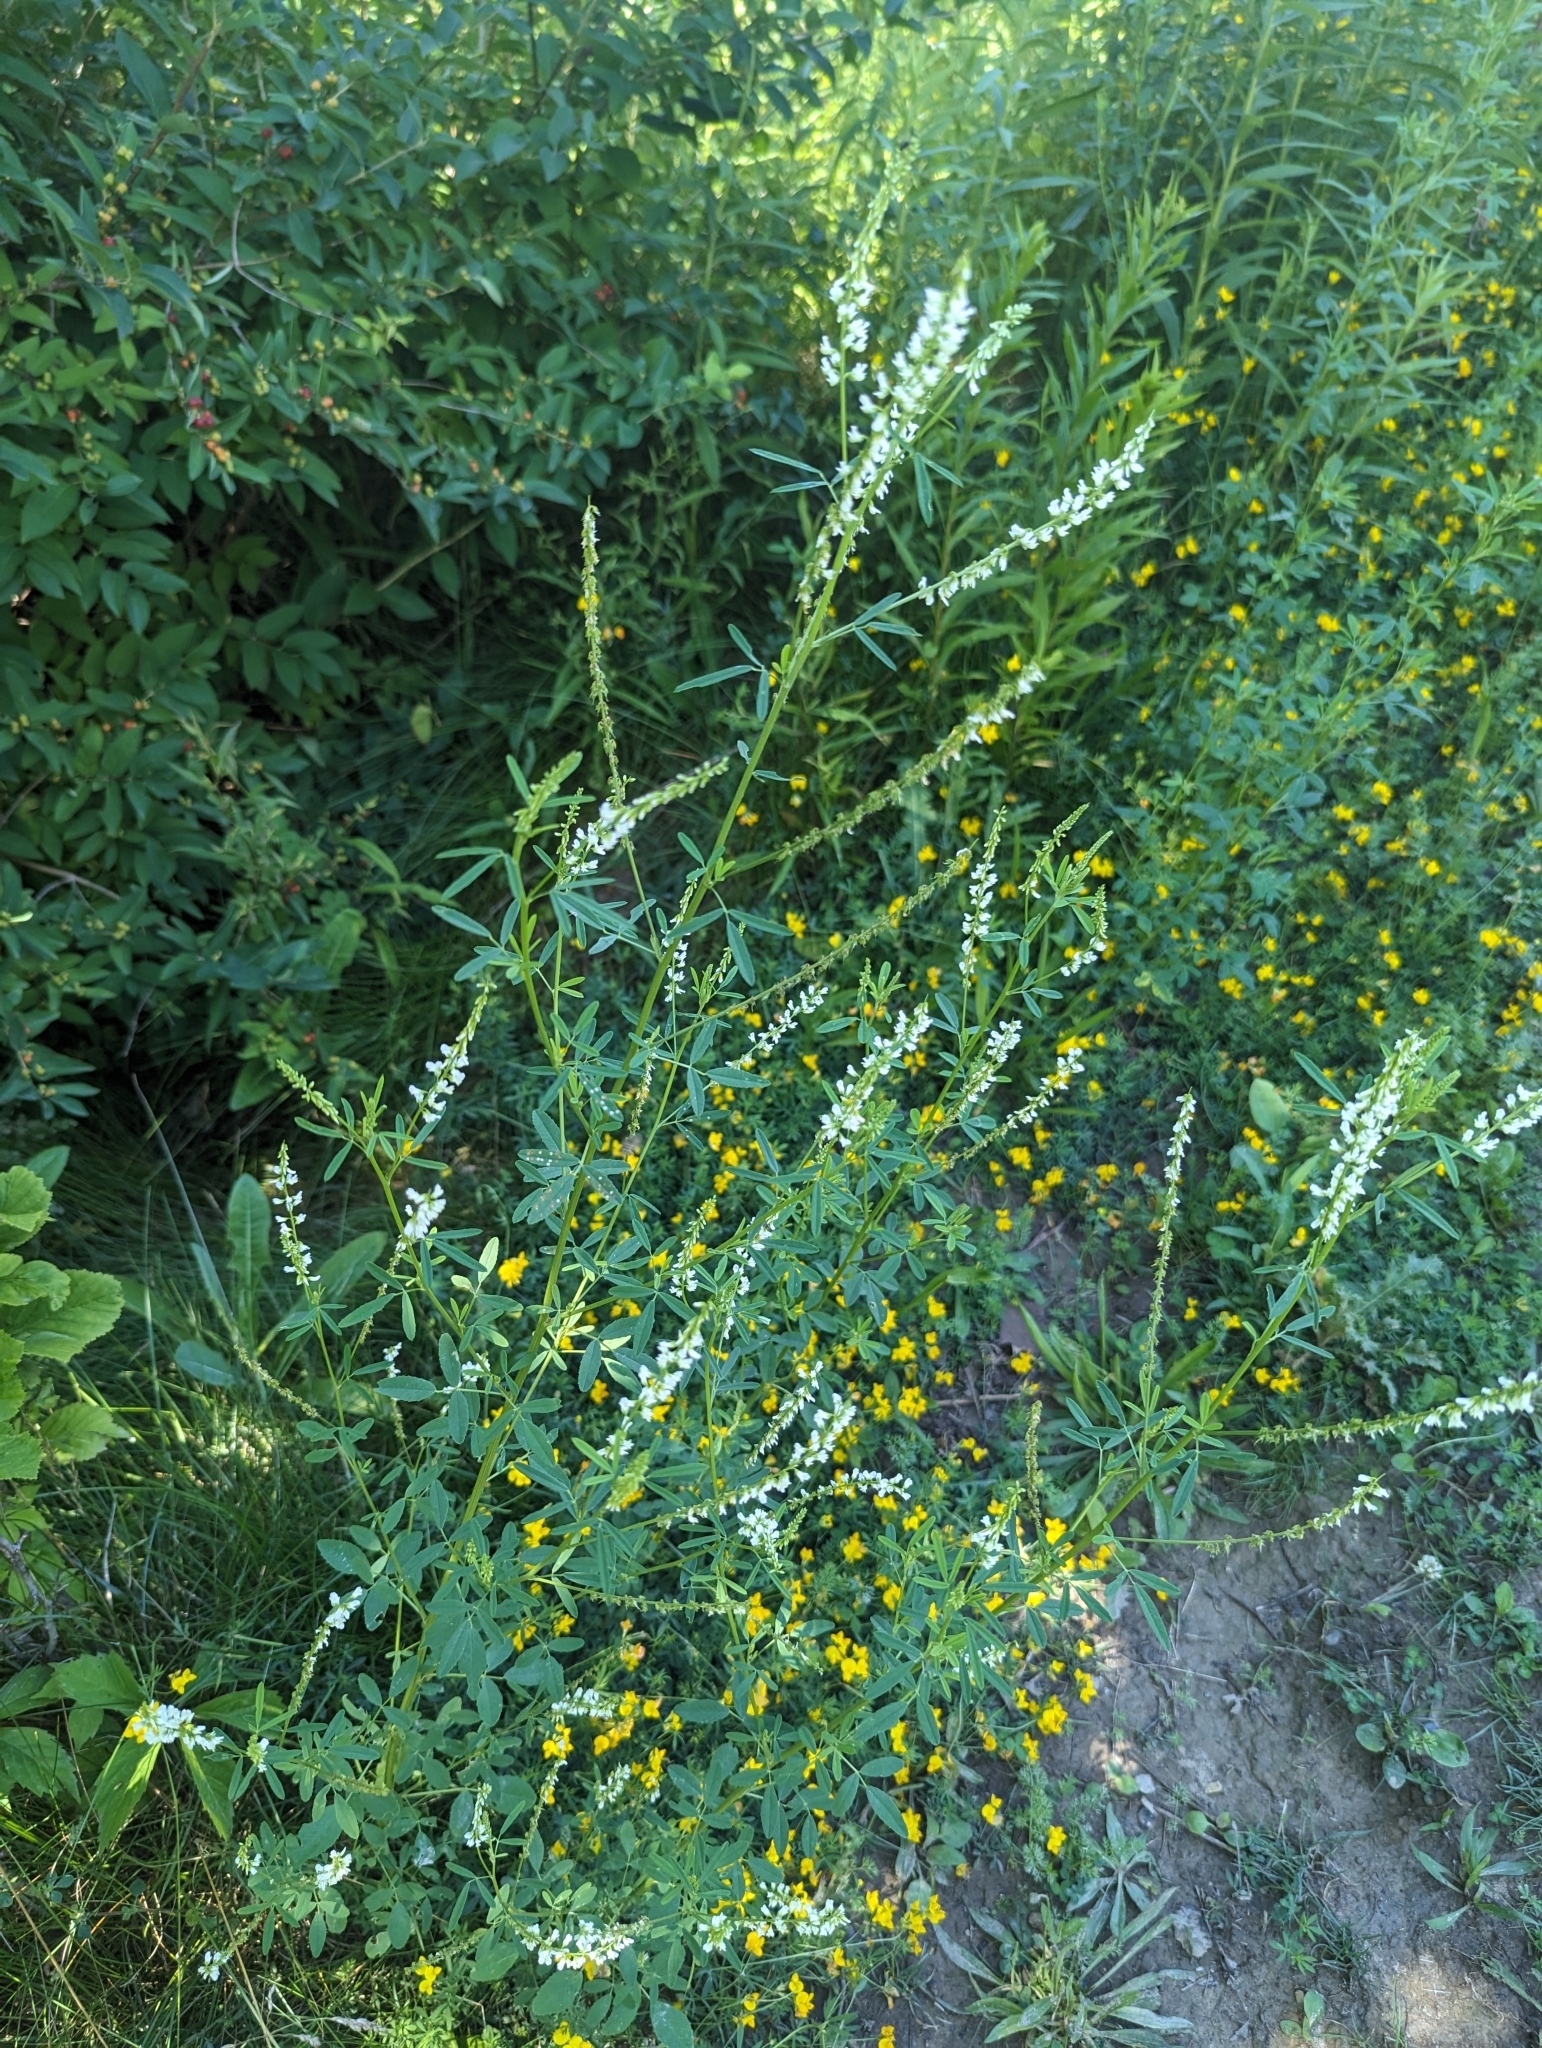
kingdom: Plantae
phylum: Tracheophyta
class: Magnoliopsida
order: Fabales
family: Fabaceae
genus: Melilotus
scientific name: Melilotus albus
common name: White melilot
